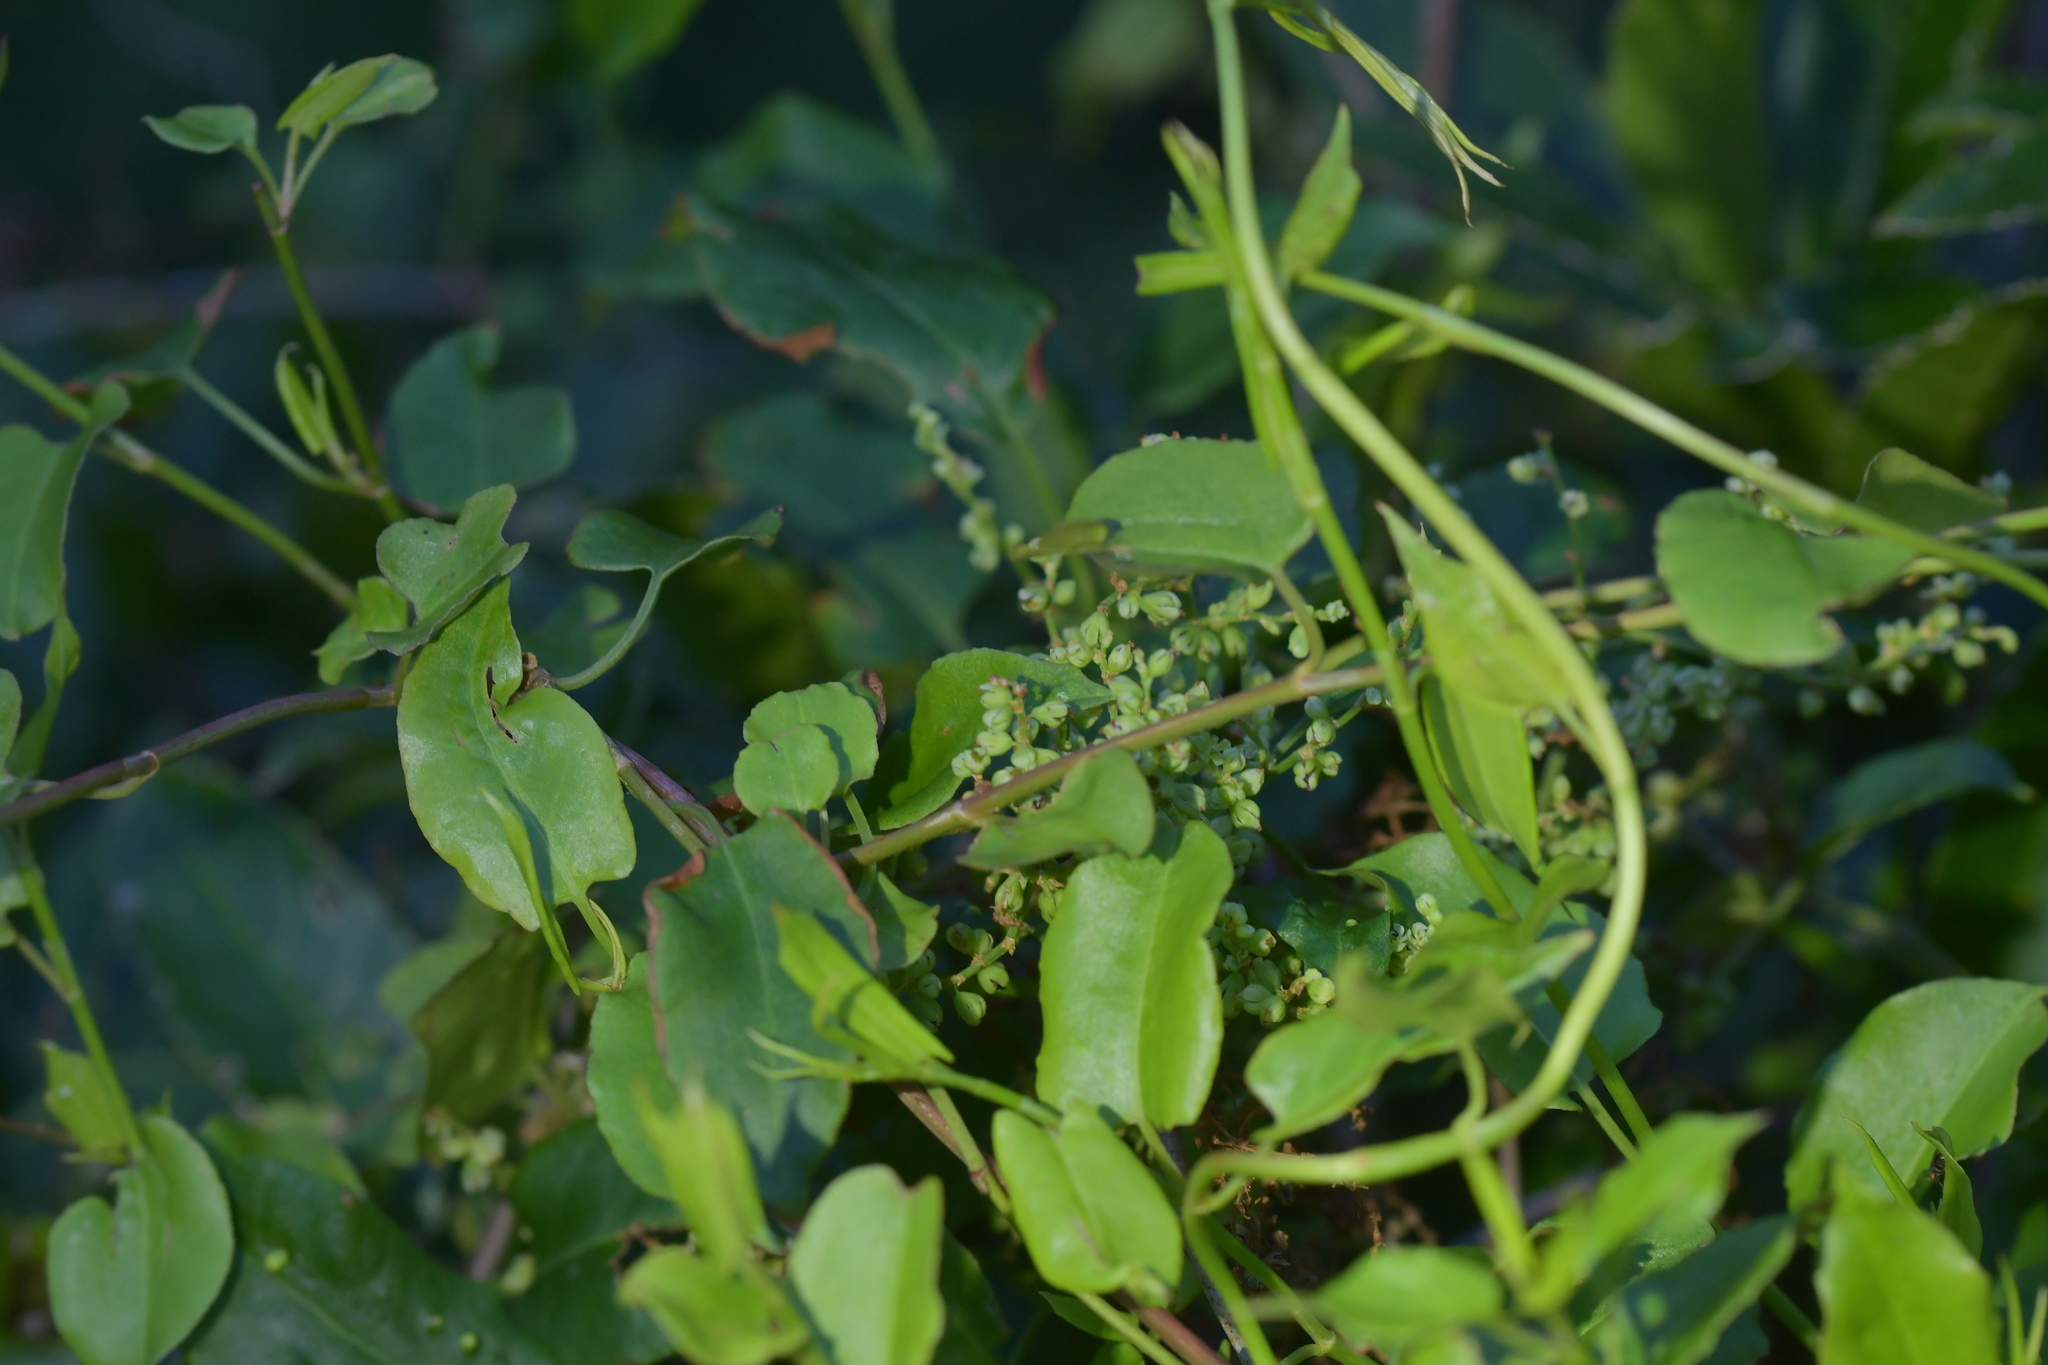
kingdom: Plantae
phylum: Tracheophyta
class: Magnoliopsida
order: Caryophyllales
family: Polygonaceae
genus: Muehlenbeckia
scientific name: Muehlenbeckia australis
